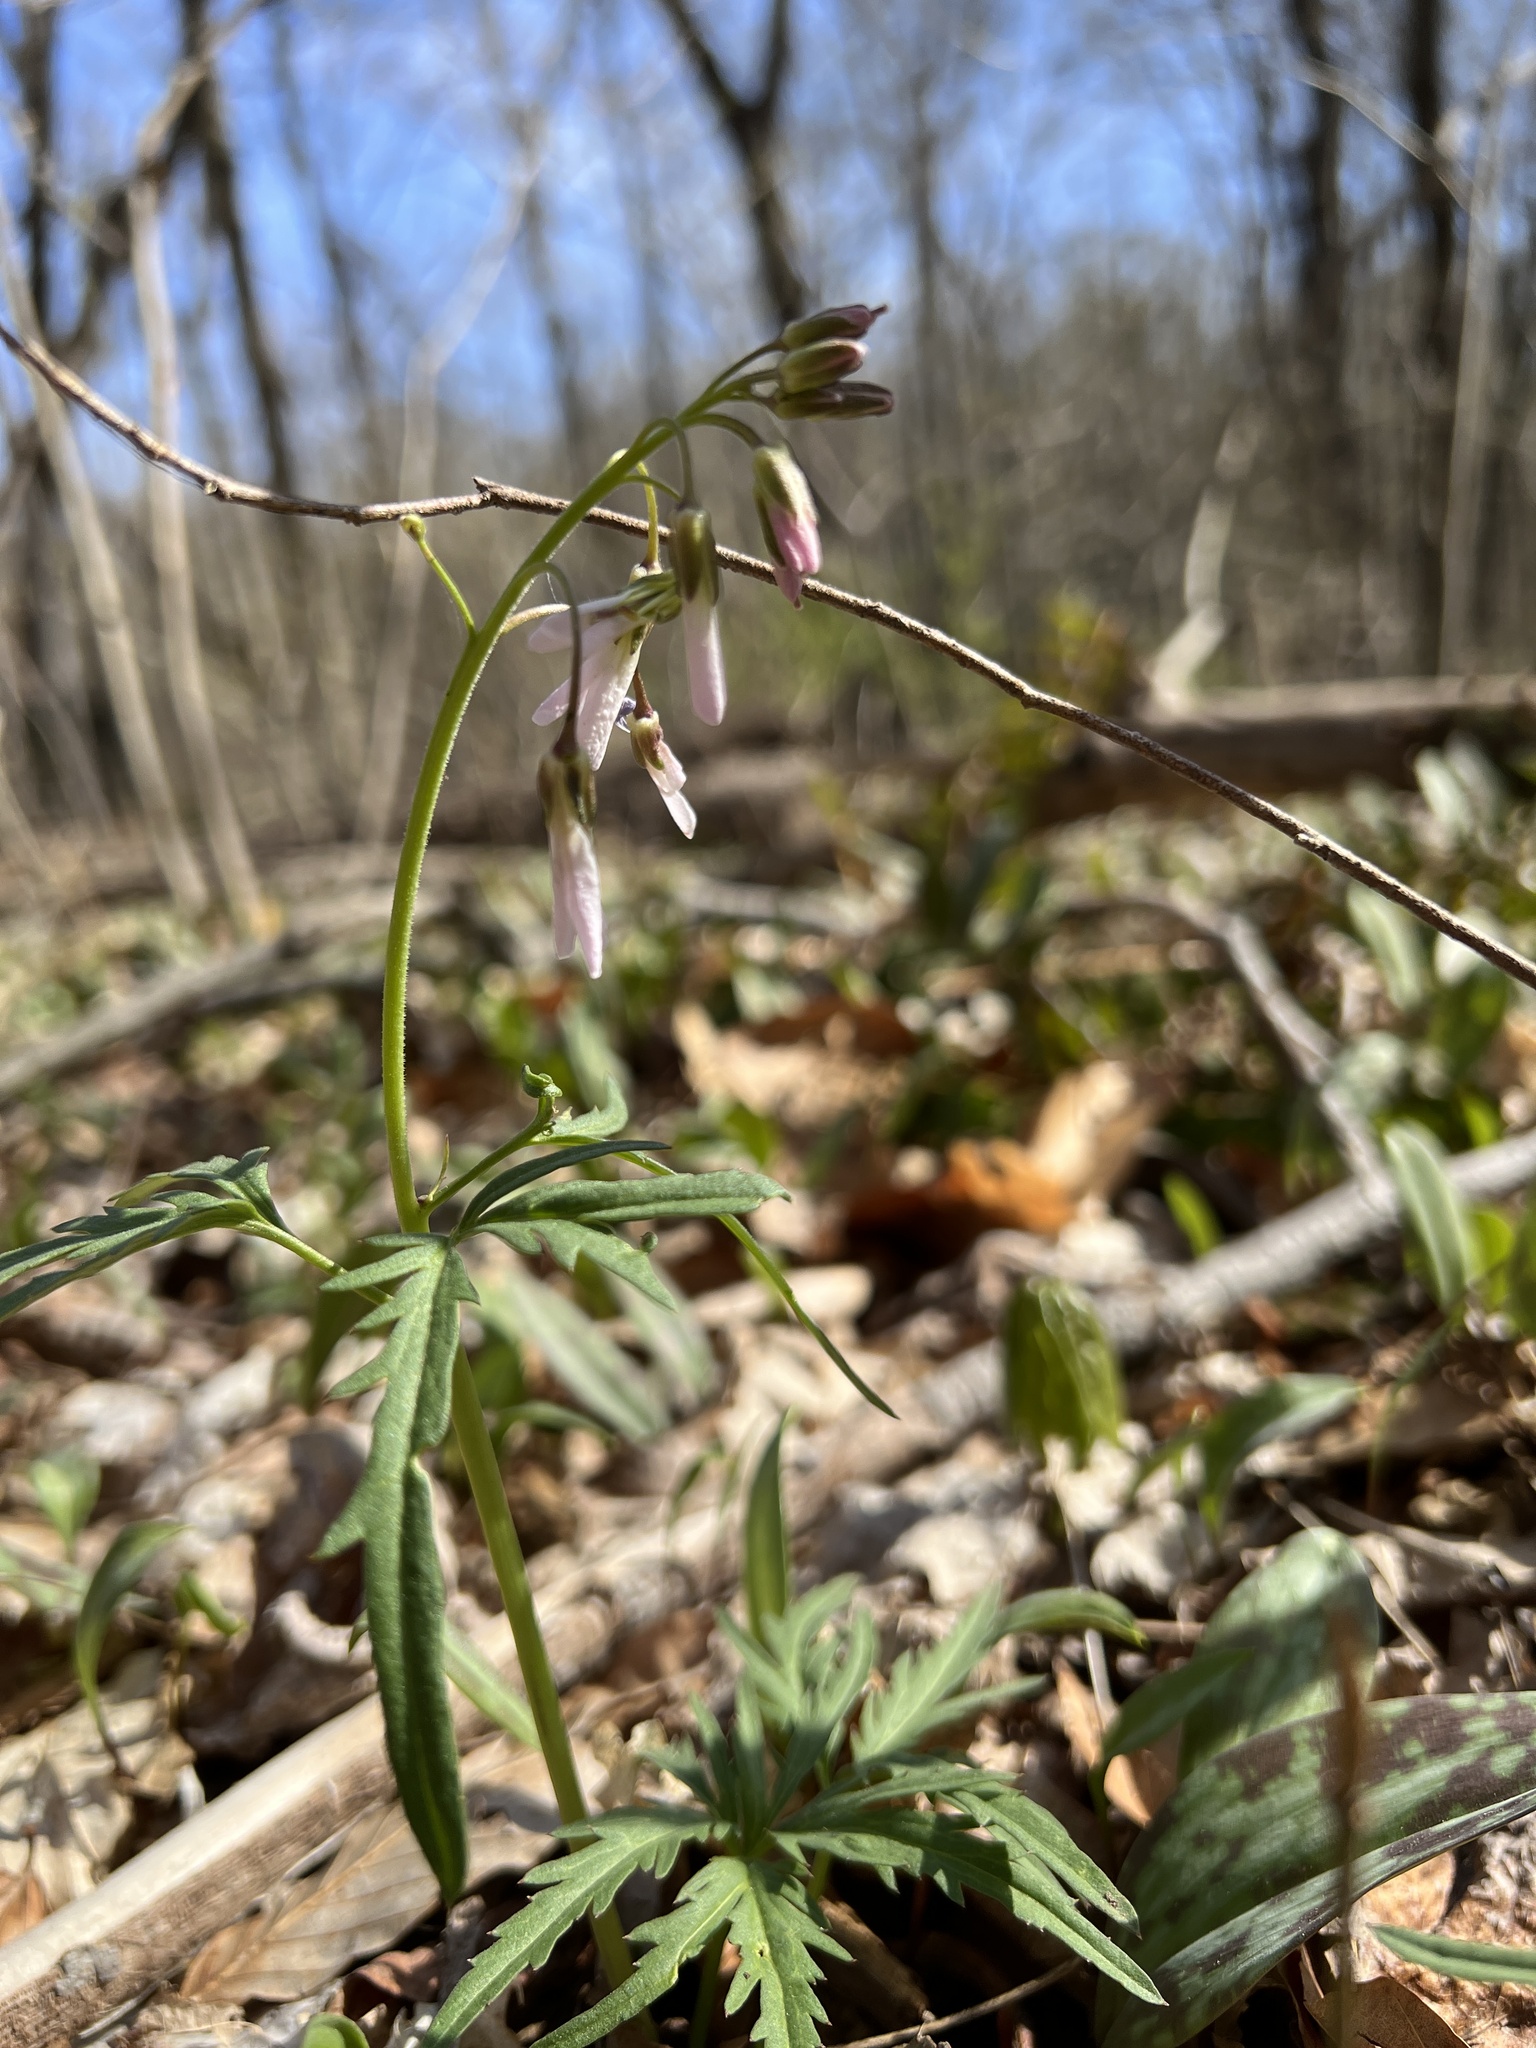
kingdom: Plantae
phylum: Tracheophyta
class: Magnoliopsida
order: Brassicales
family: Brassicaceae
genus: Cardamine
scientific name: Cardamine concatenata
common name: Cut-leaf toothcup
